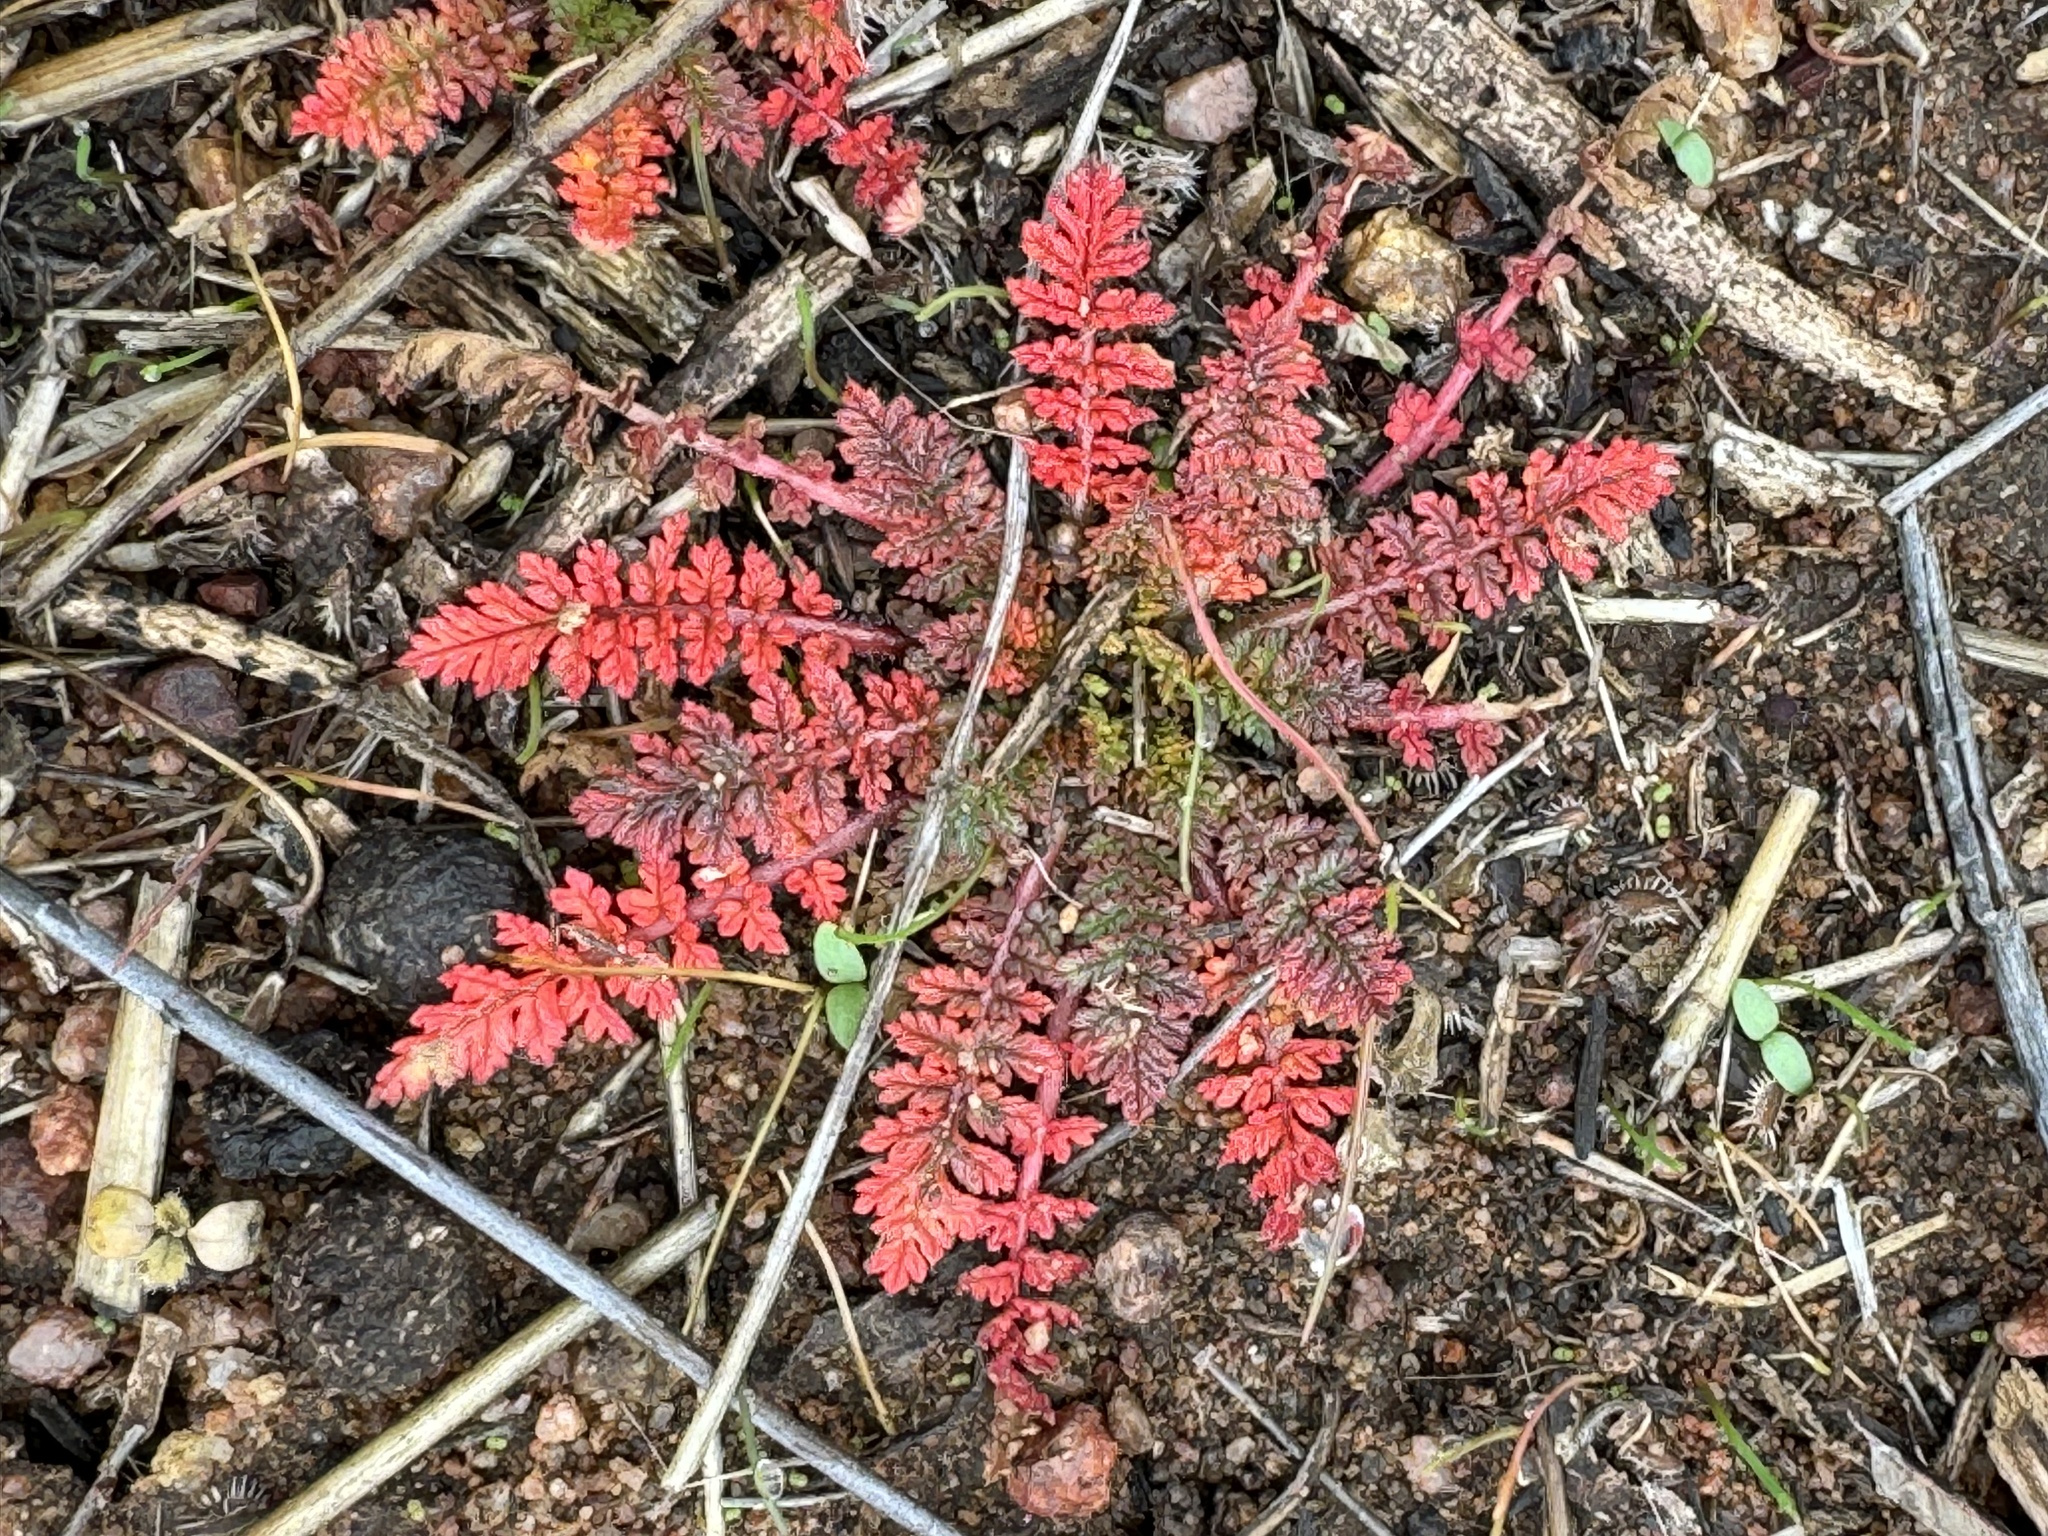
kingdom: Plantae
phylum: Tracheophyta
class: Magnoliopsida
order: Geraniales
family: Geraniaceae
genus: Erodium
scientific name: Erodium cicutarium
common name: Common stork's-bill
